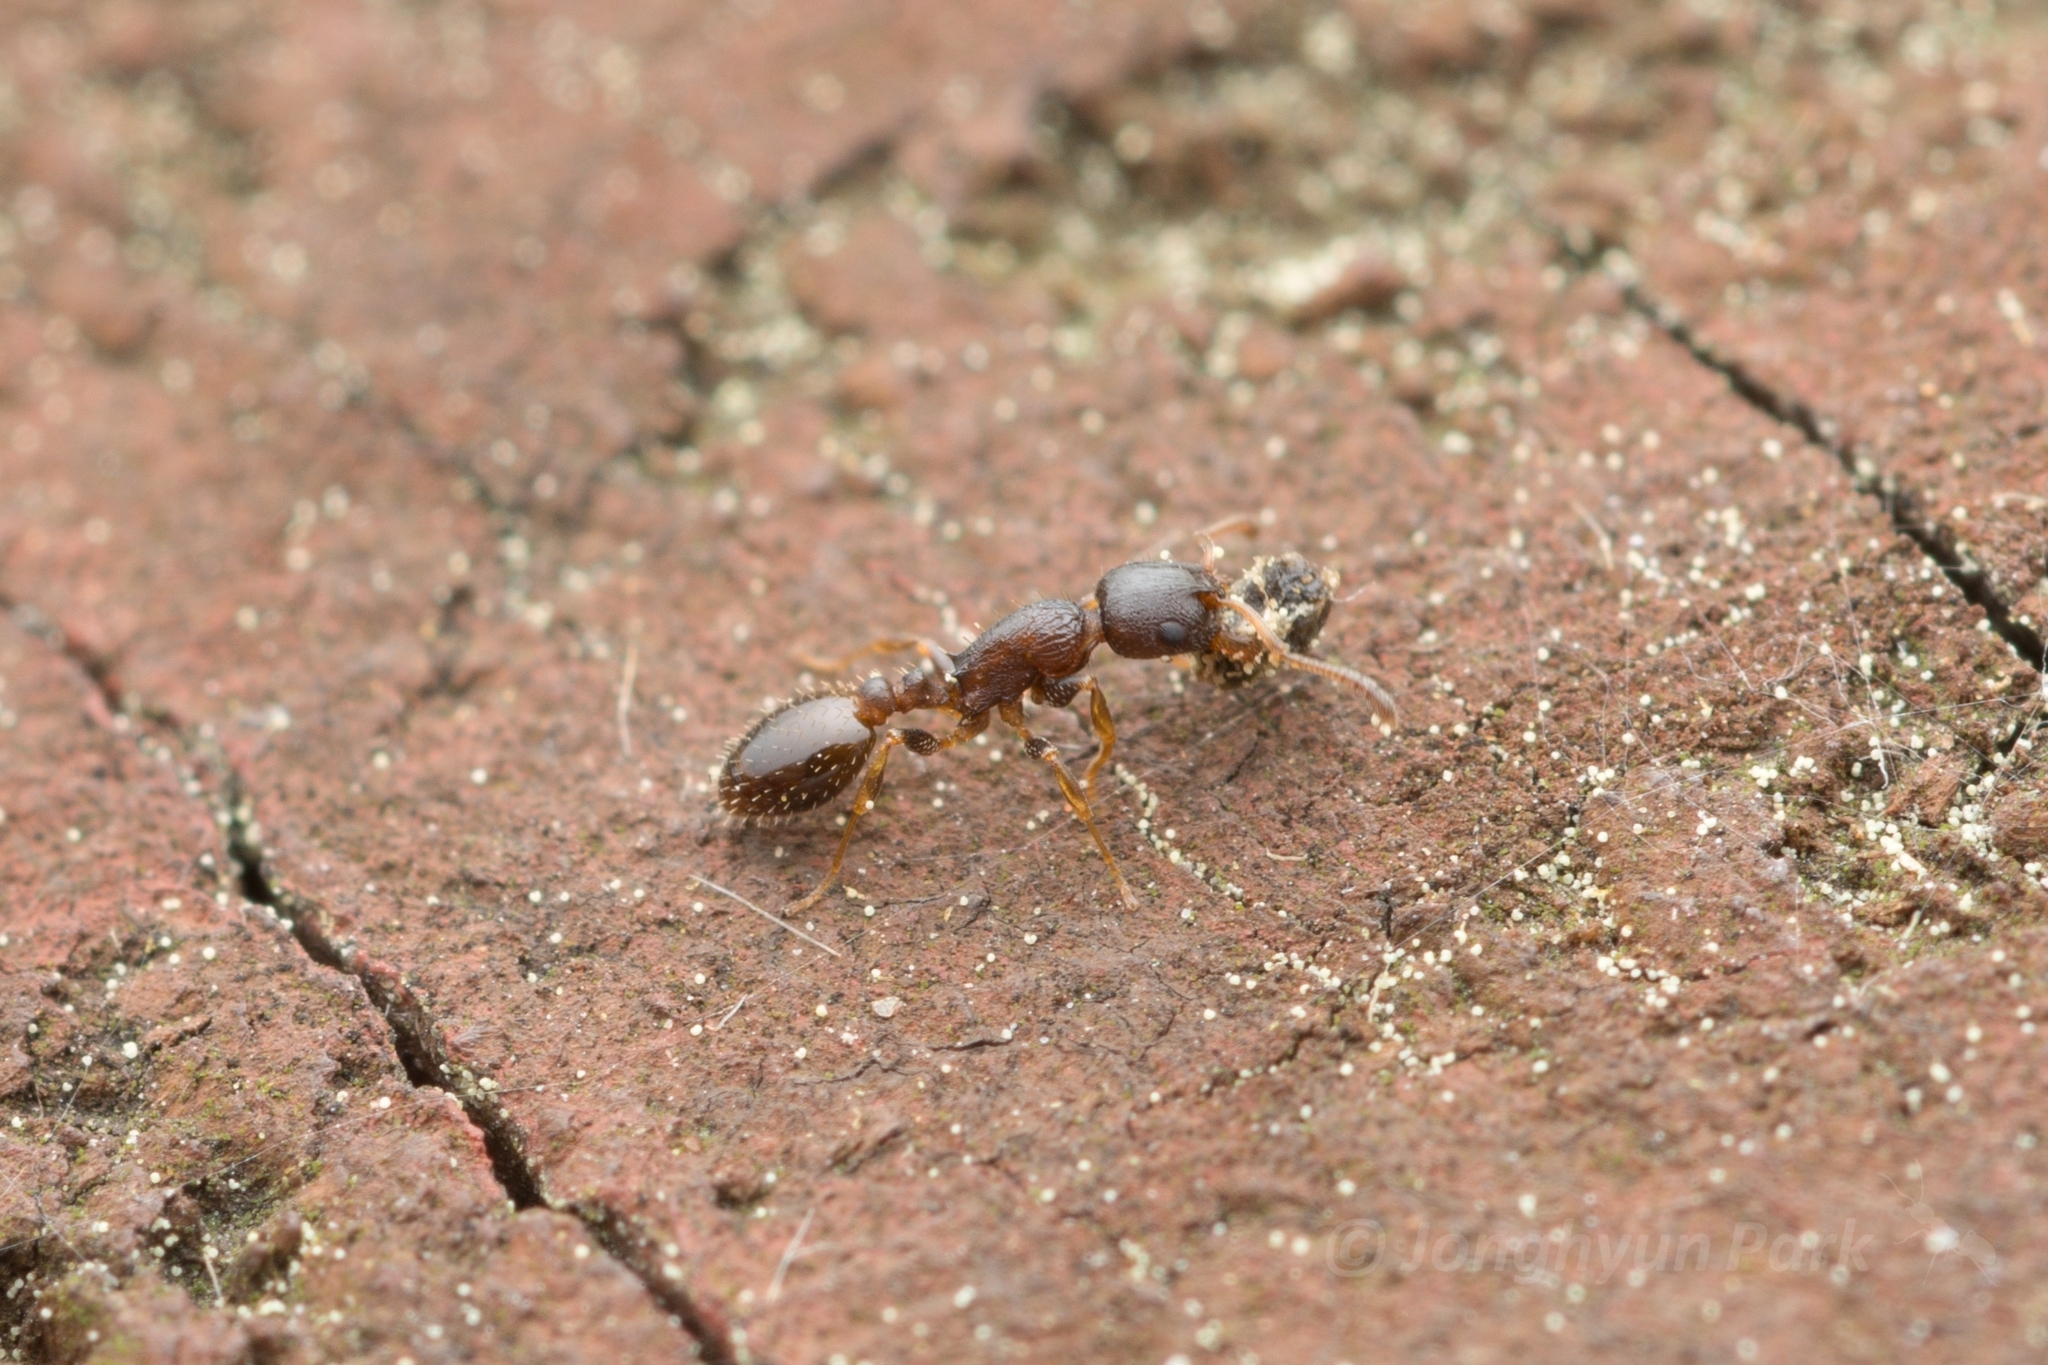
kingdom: Animalia
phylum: Arthropoda
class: Insecta
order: Hymenoptera
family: Formicidae
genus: Temnothorax
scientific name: Temnothorax
